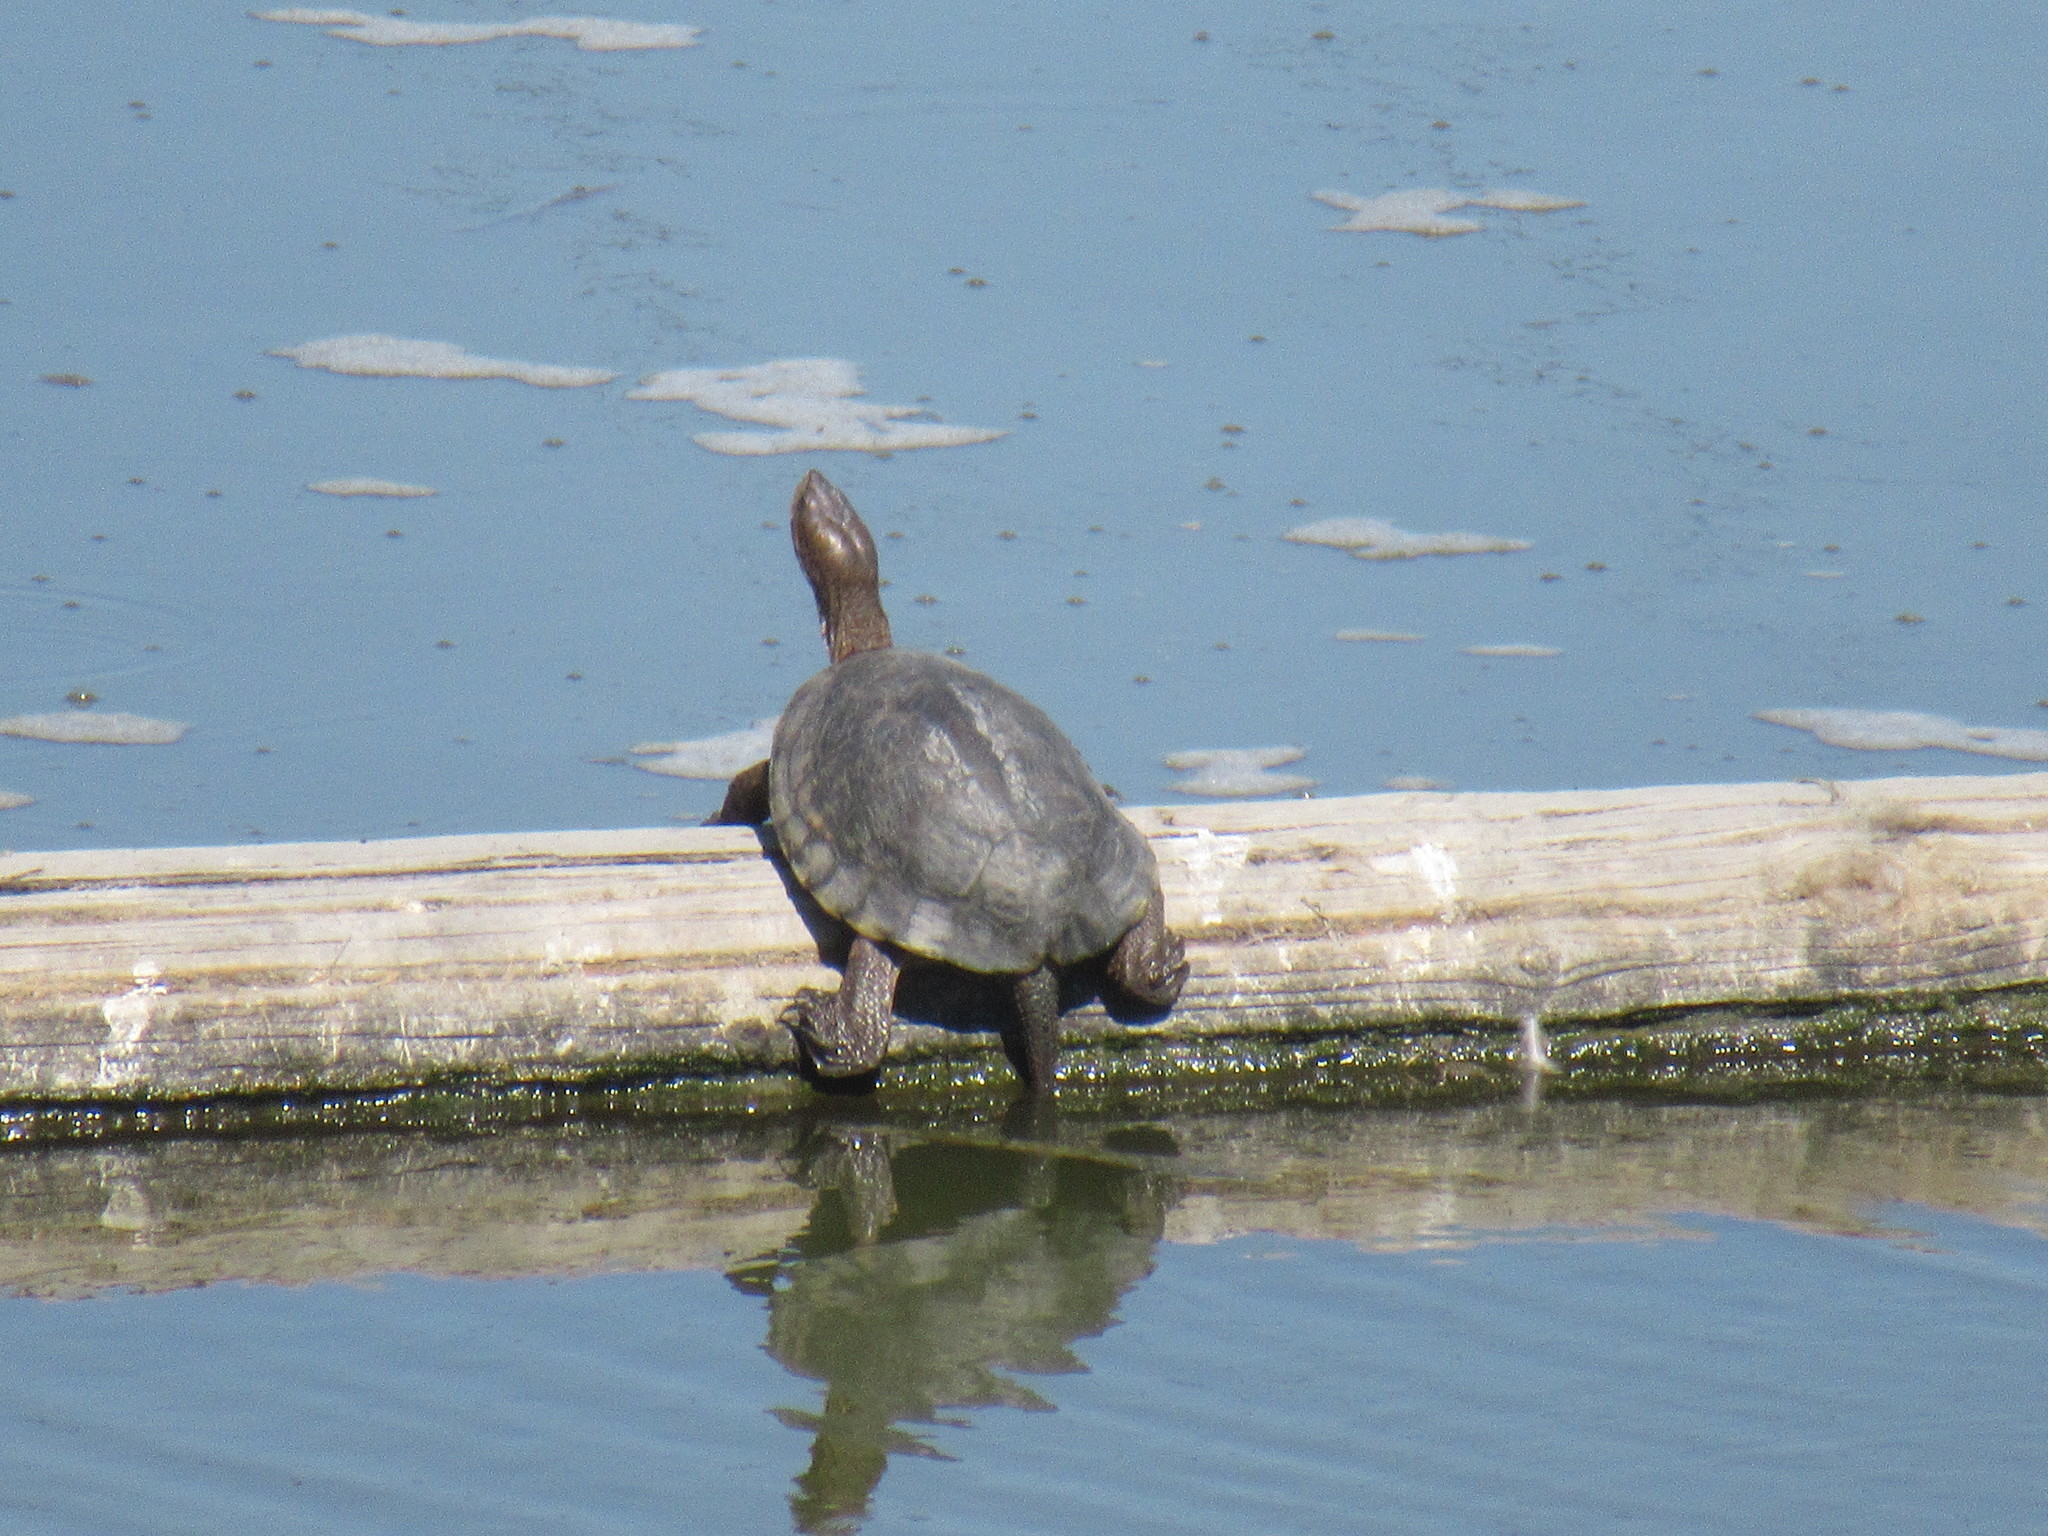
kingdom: Animalia
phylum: Chordata
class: Testudines
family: Emydidae
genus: Actinemys
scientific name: Actinemys marmorata
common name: Western pond turtle
